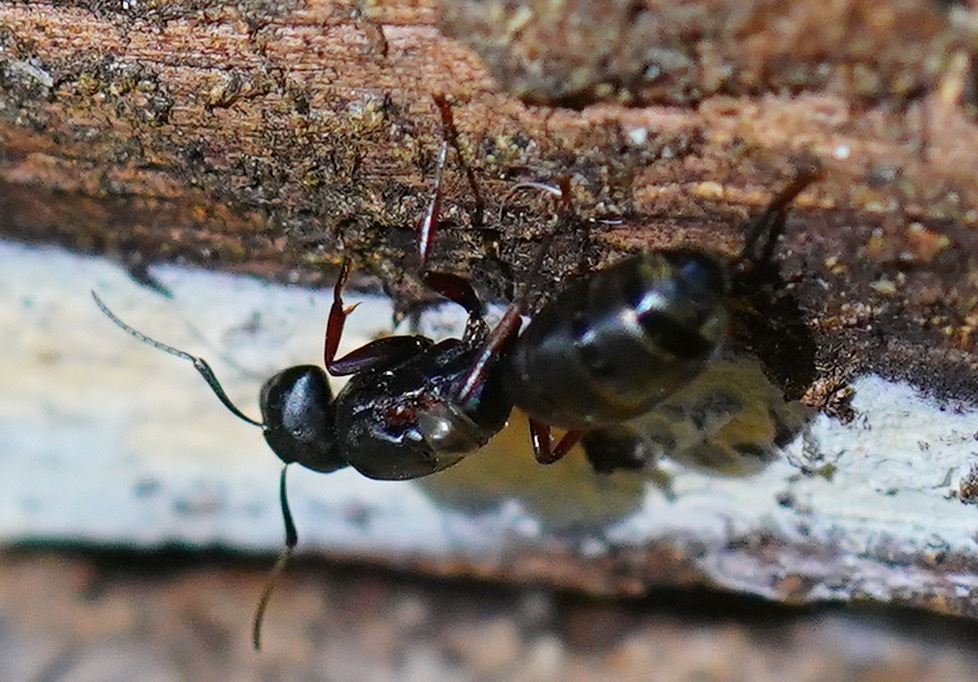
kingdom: Animalia
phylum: Arthropoda
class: Insecta
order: Hymenoptera
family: Formicidae
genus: Camponotus
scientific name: Camponotus modoc
